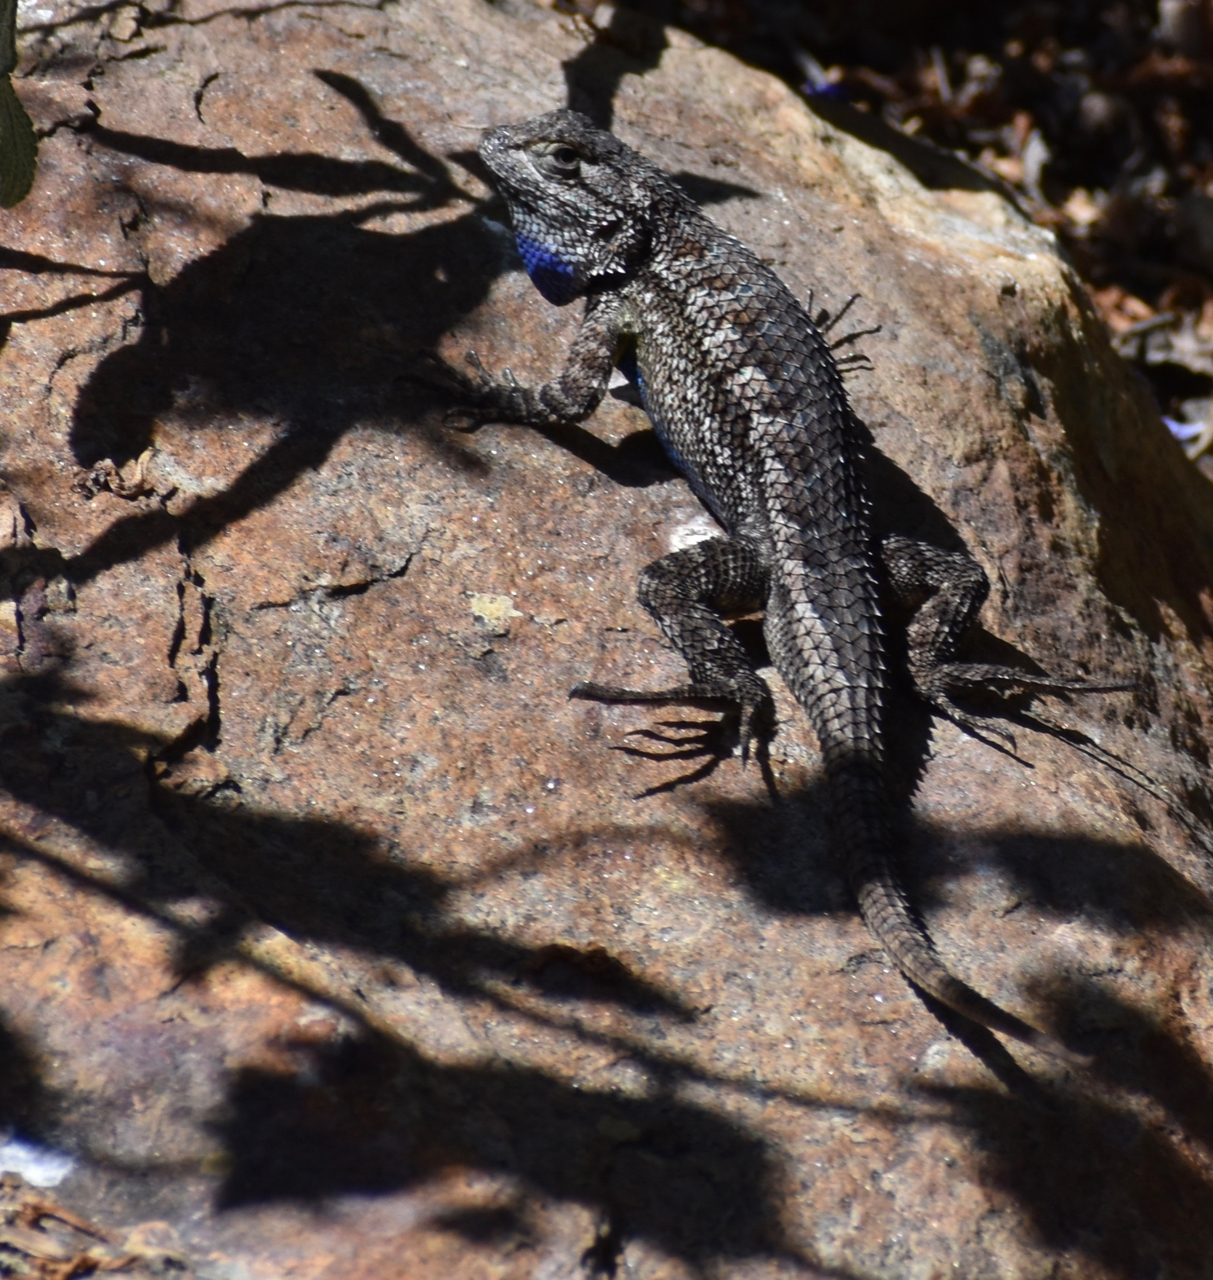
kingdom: Animalia
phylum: Chordata
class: Squamata
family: Phrynosomatidae
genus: Sceloporus
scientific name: Sceloporus occidentalis
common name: Western fence lizard
